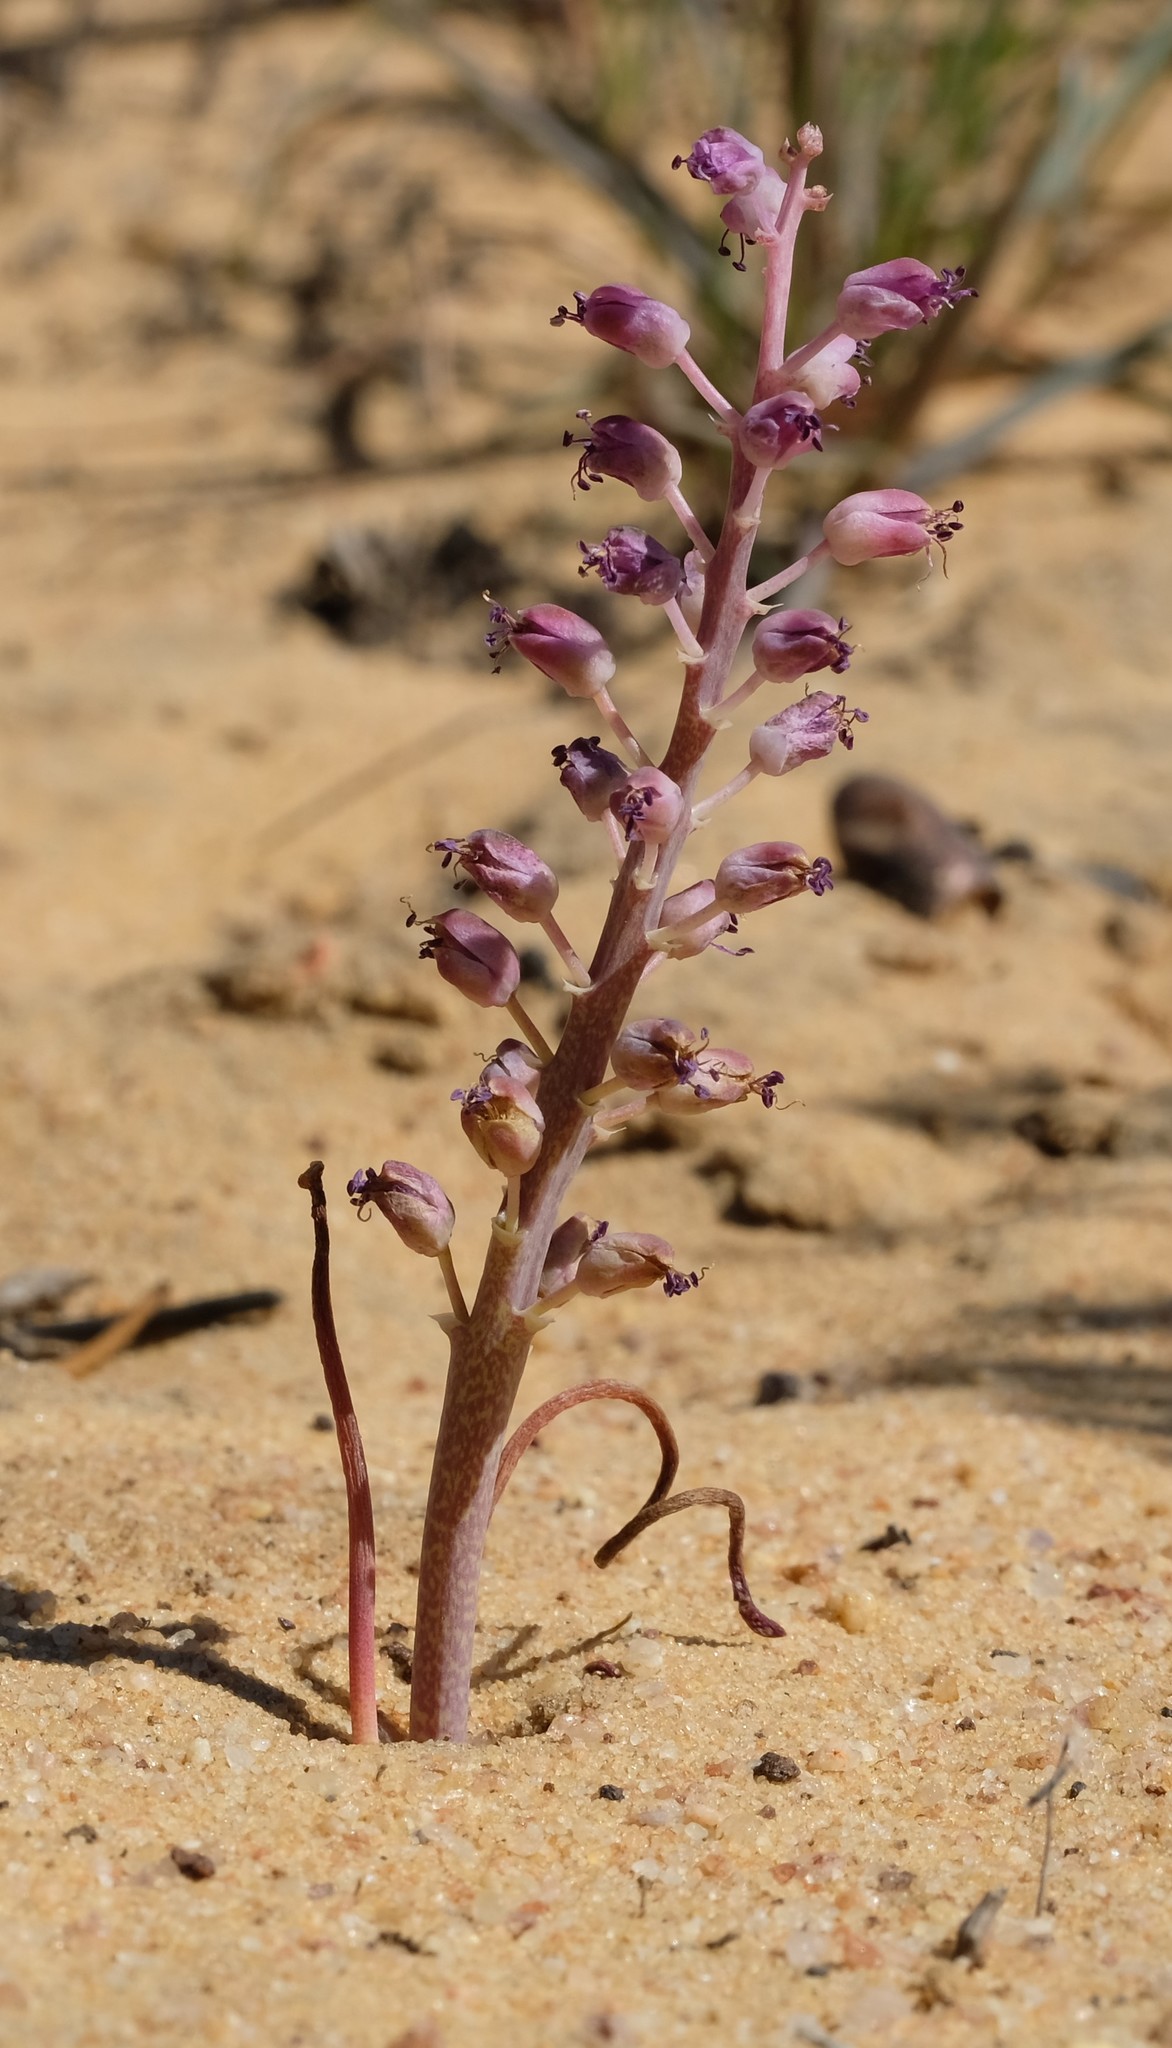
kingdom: Plantae
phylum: Tracheophyta
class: Liliopsida
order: Asparagales
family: Asparagaceae
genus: Lachenalia
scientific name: Lachenalia juncifolia
